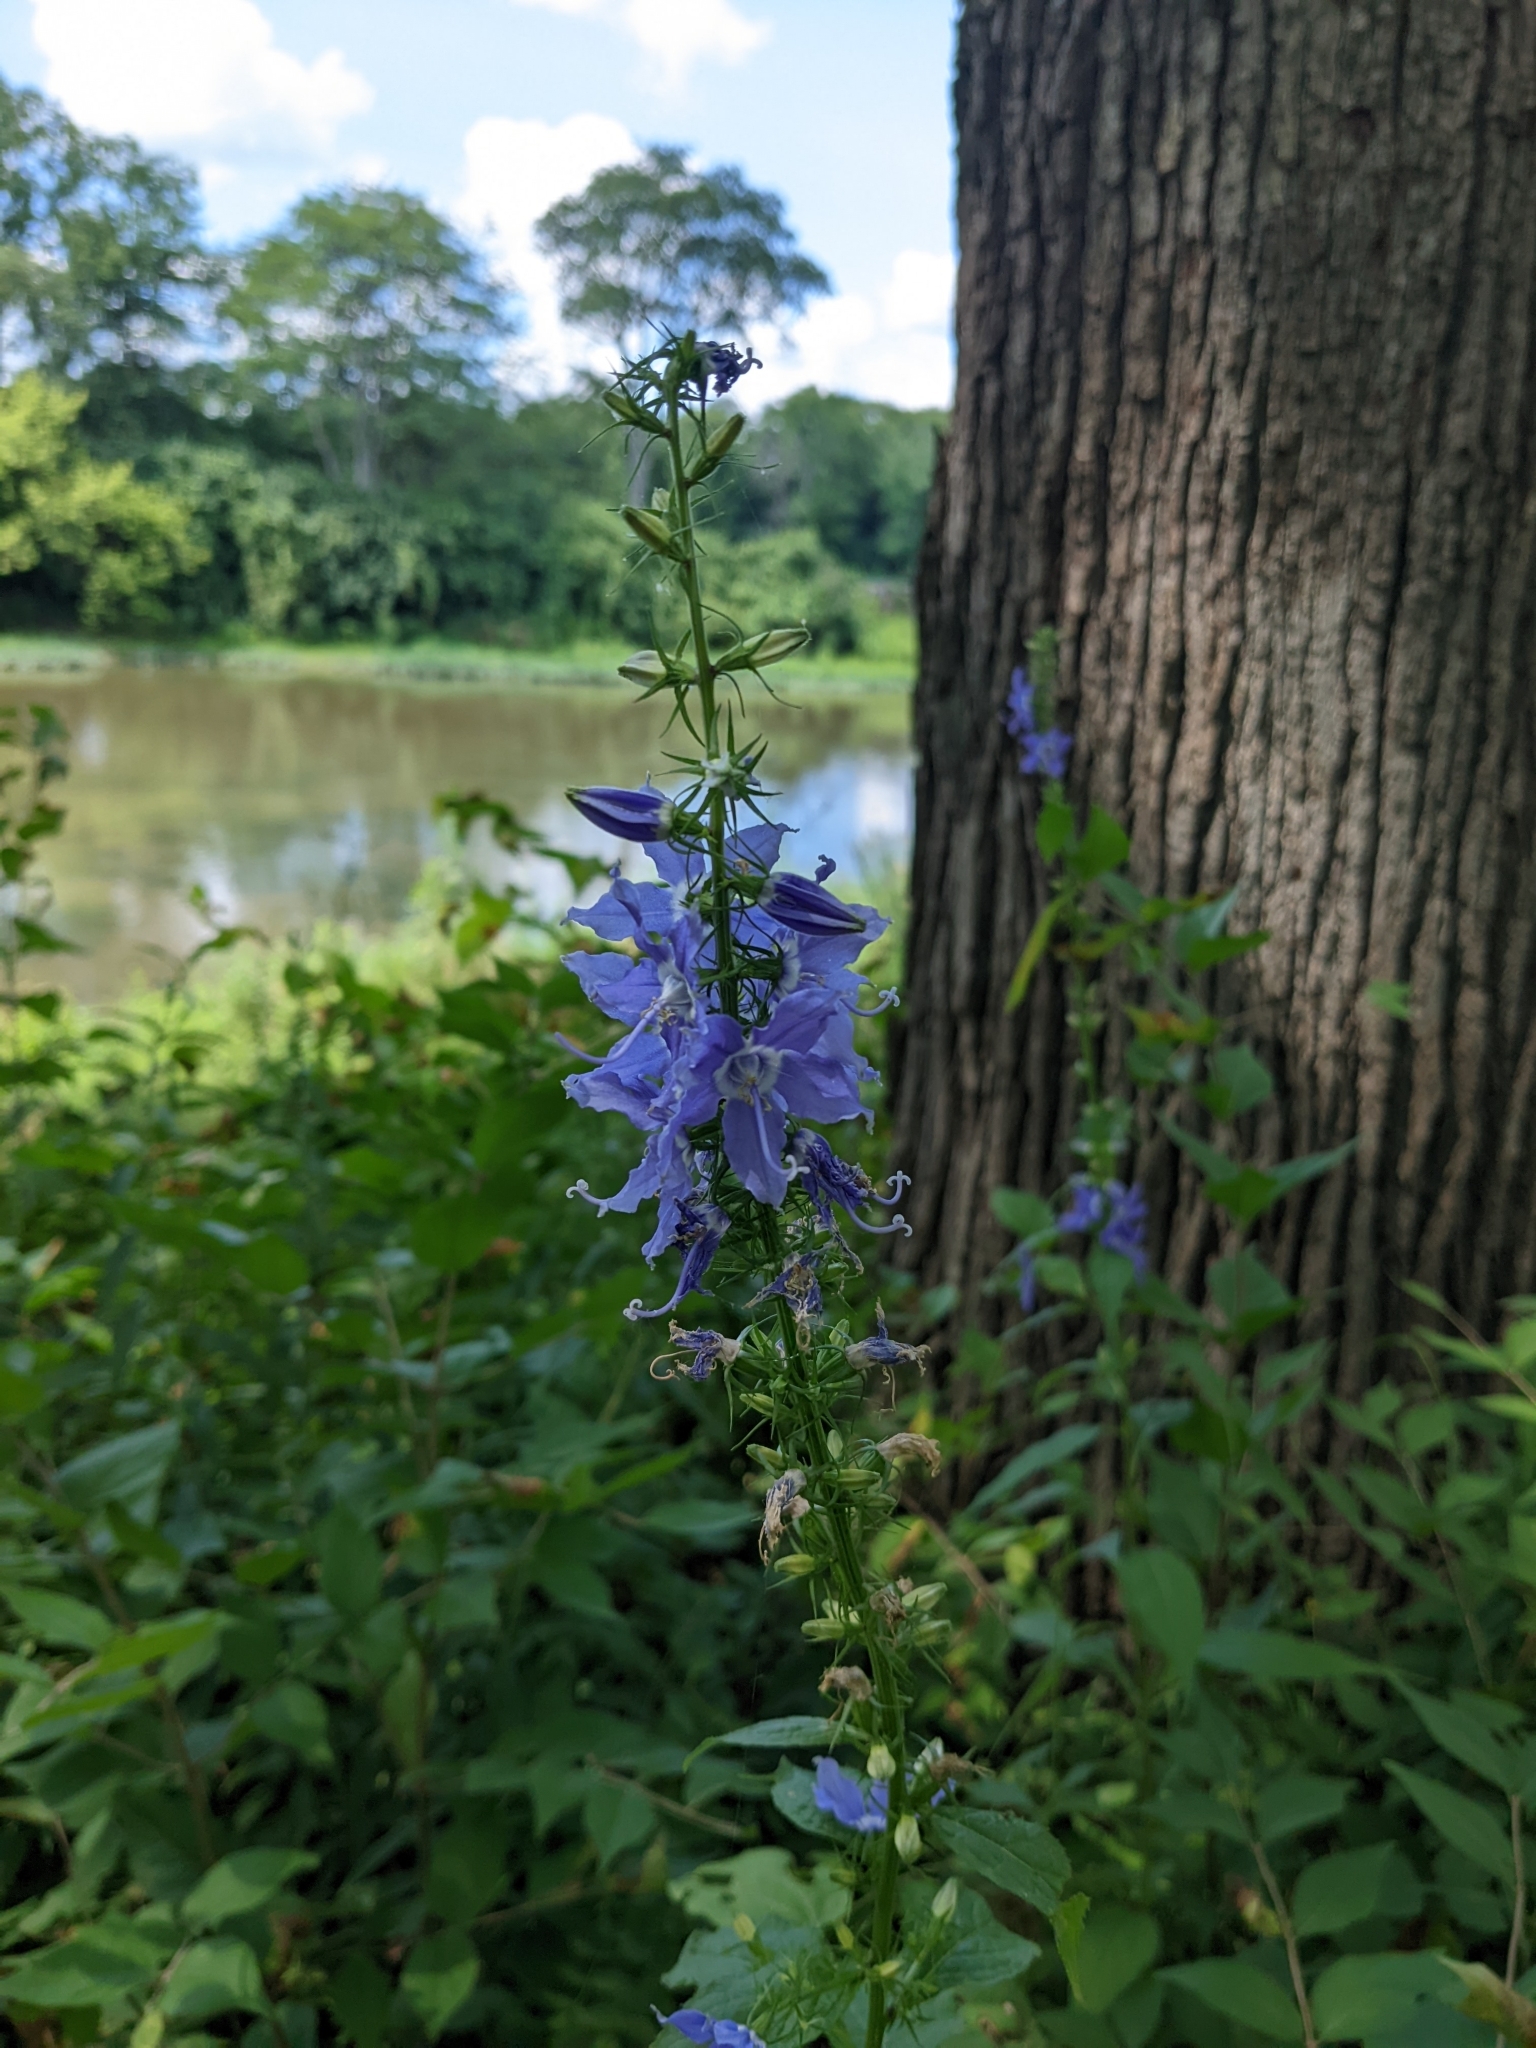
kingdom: Plantae
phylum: Tracheophyta
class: Magnoliopsida
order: Asterales
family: Campanulaceae
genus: Campanulastrum
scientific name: Campanulastrum americanum
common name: American bellflower
